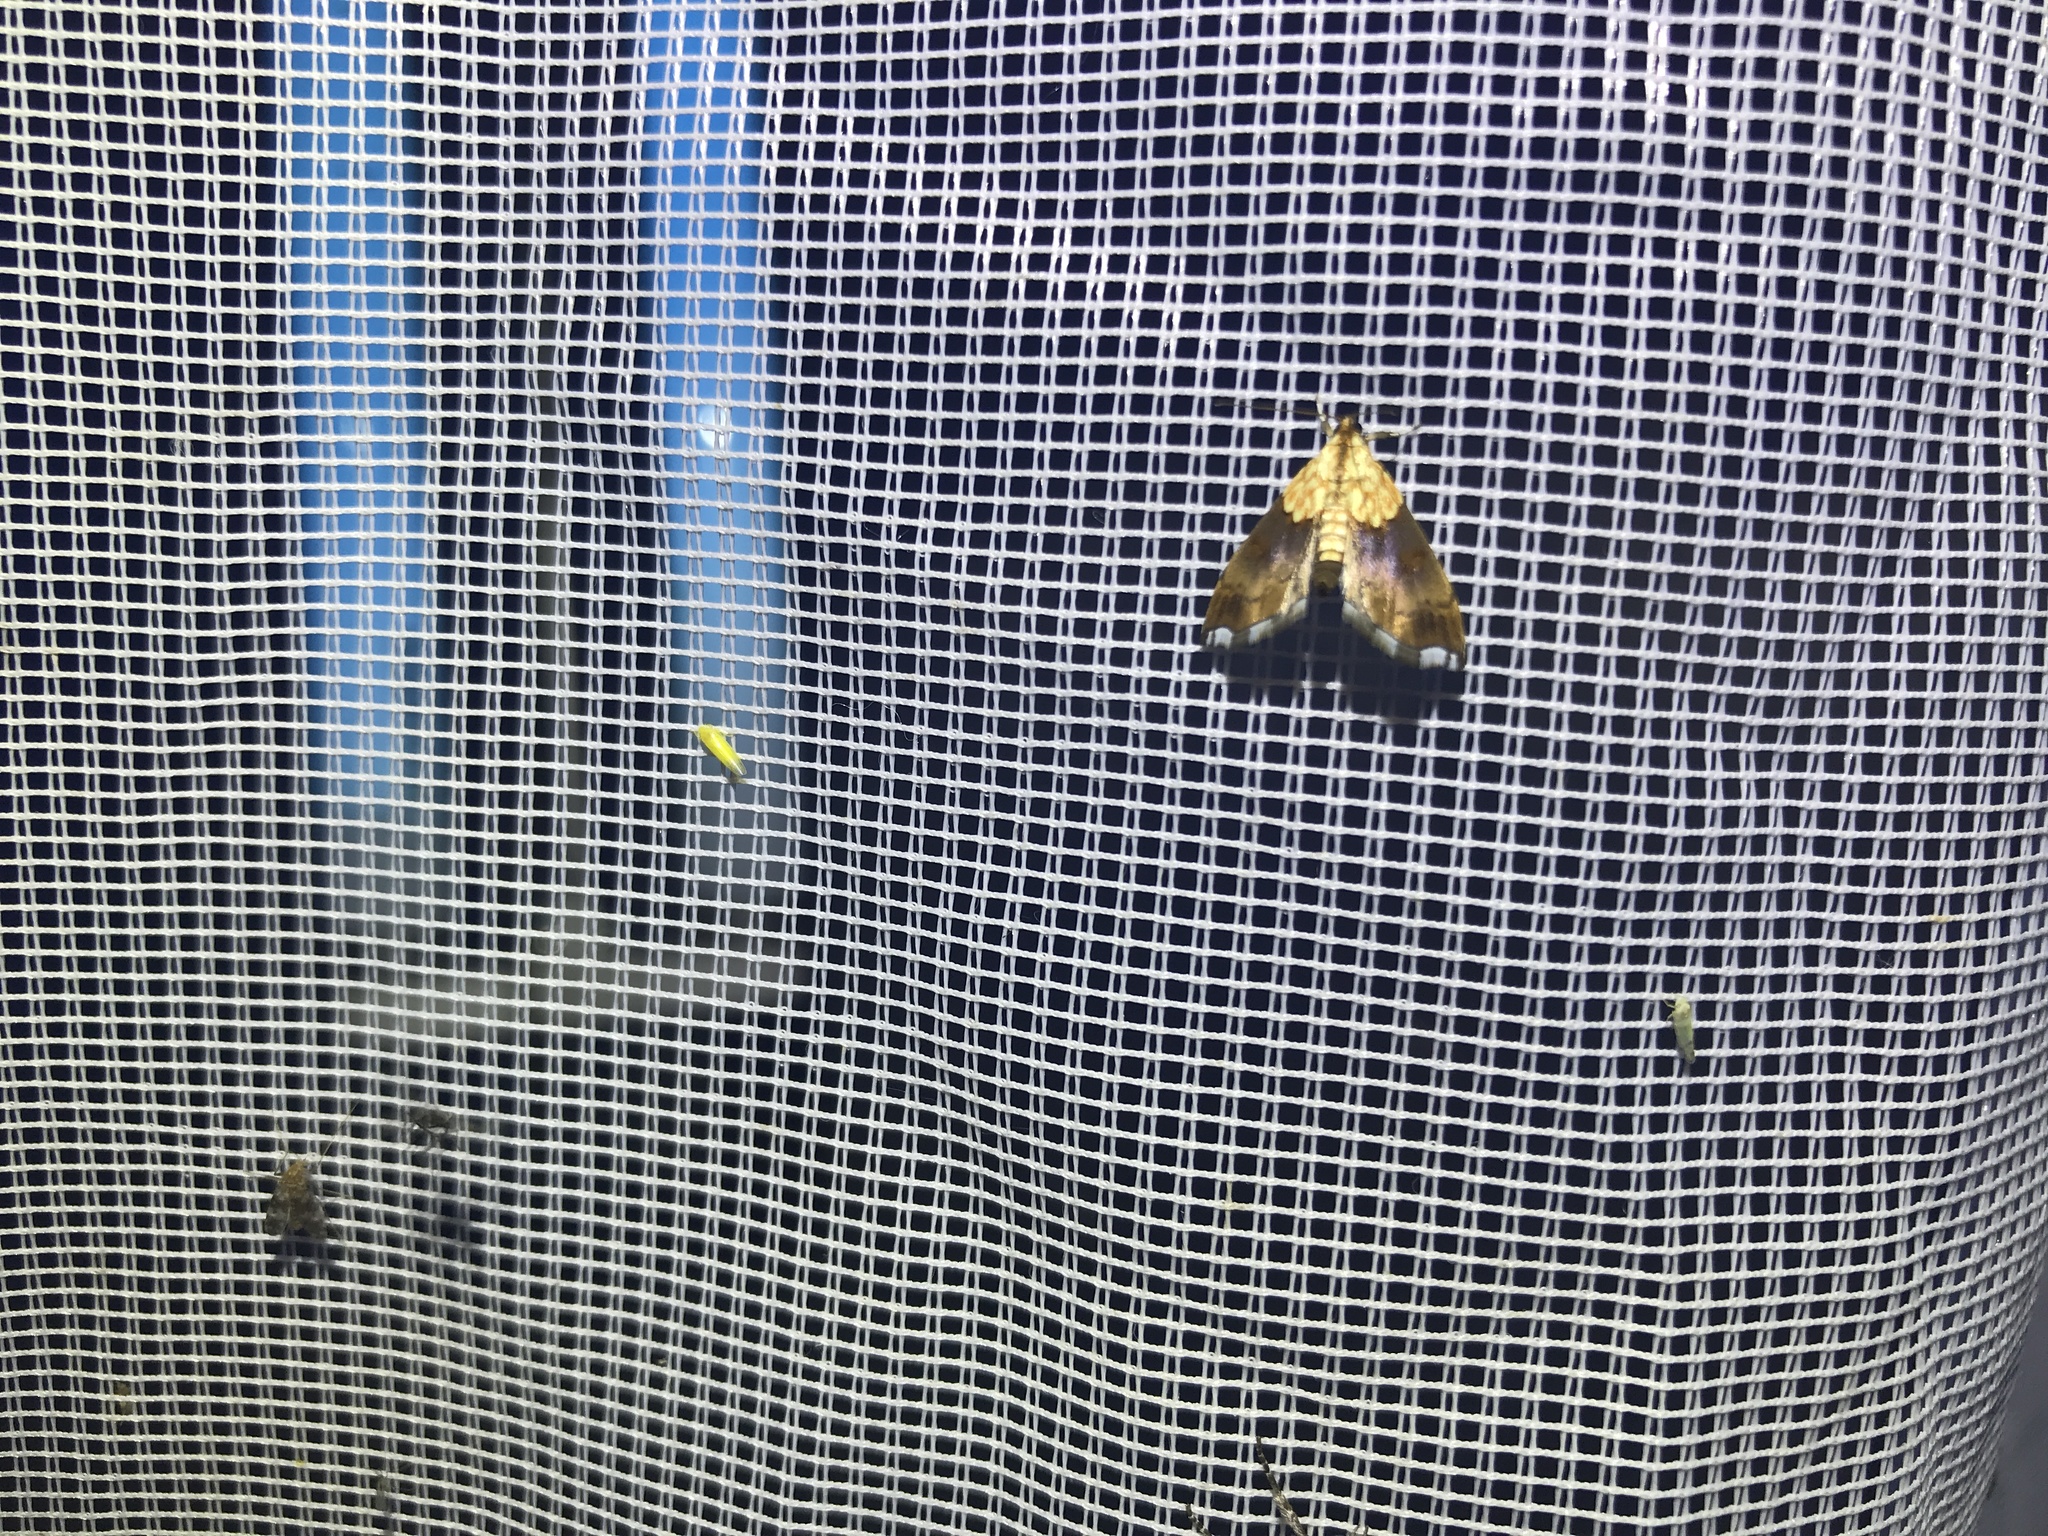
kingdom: Animalia
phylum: Arthropoda
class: Insecta
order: Lepidoptera
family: Crambidae
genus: Agrotera
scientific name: Agrotera nemoralis
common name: Beautiful pearl
